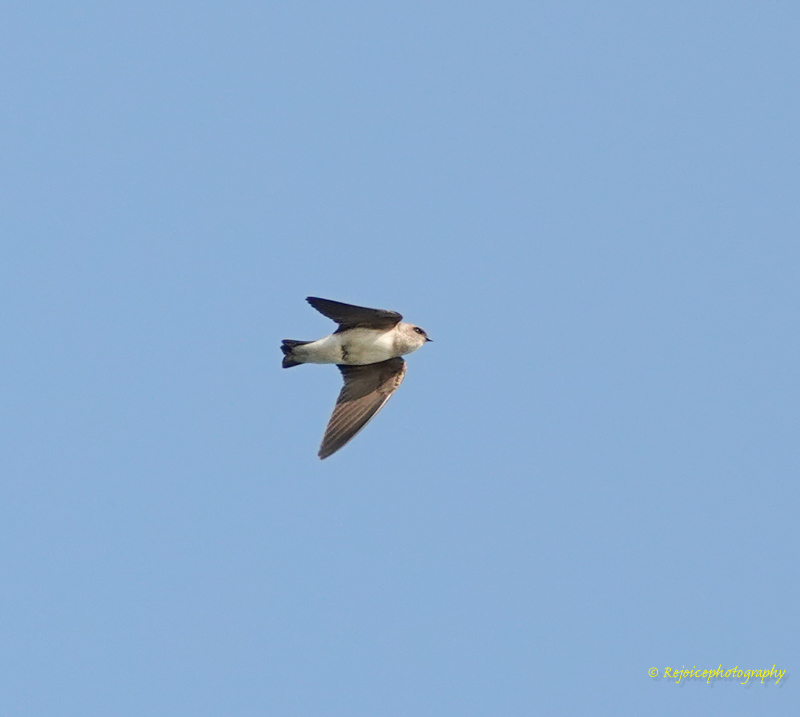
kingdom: Animalia
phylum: Chordata
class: Aves
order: Passeriformes
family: Hirundinidae
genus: Riparia
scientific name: Riparia diluta
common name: Pale martin
